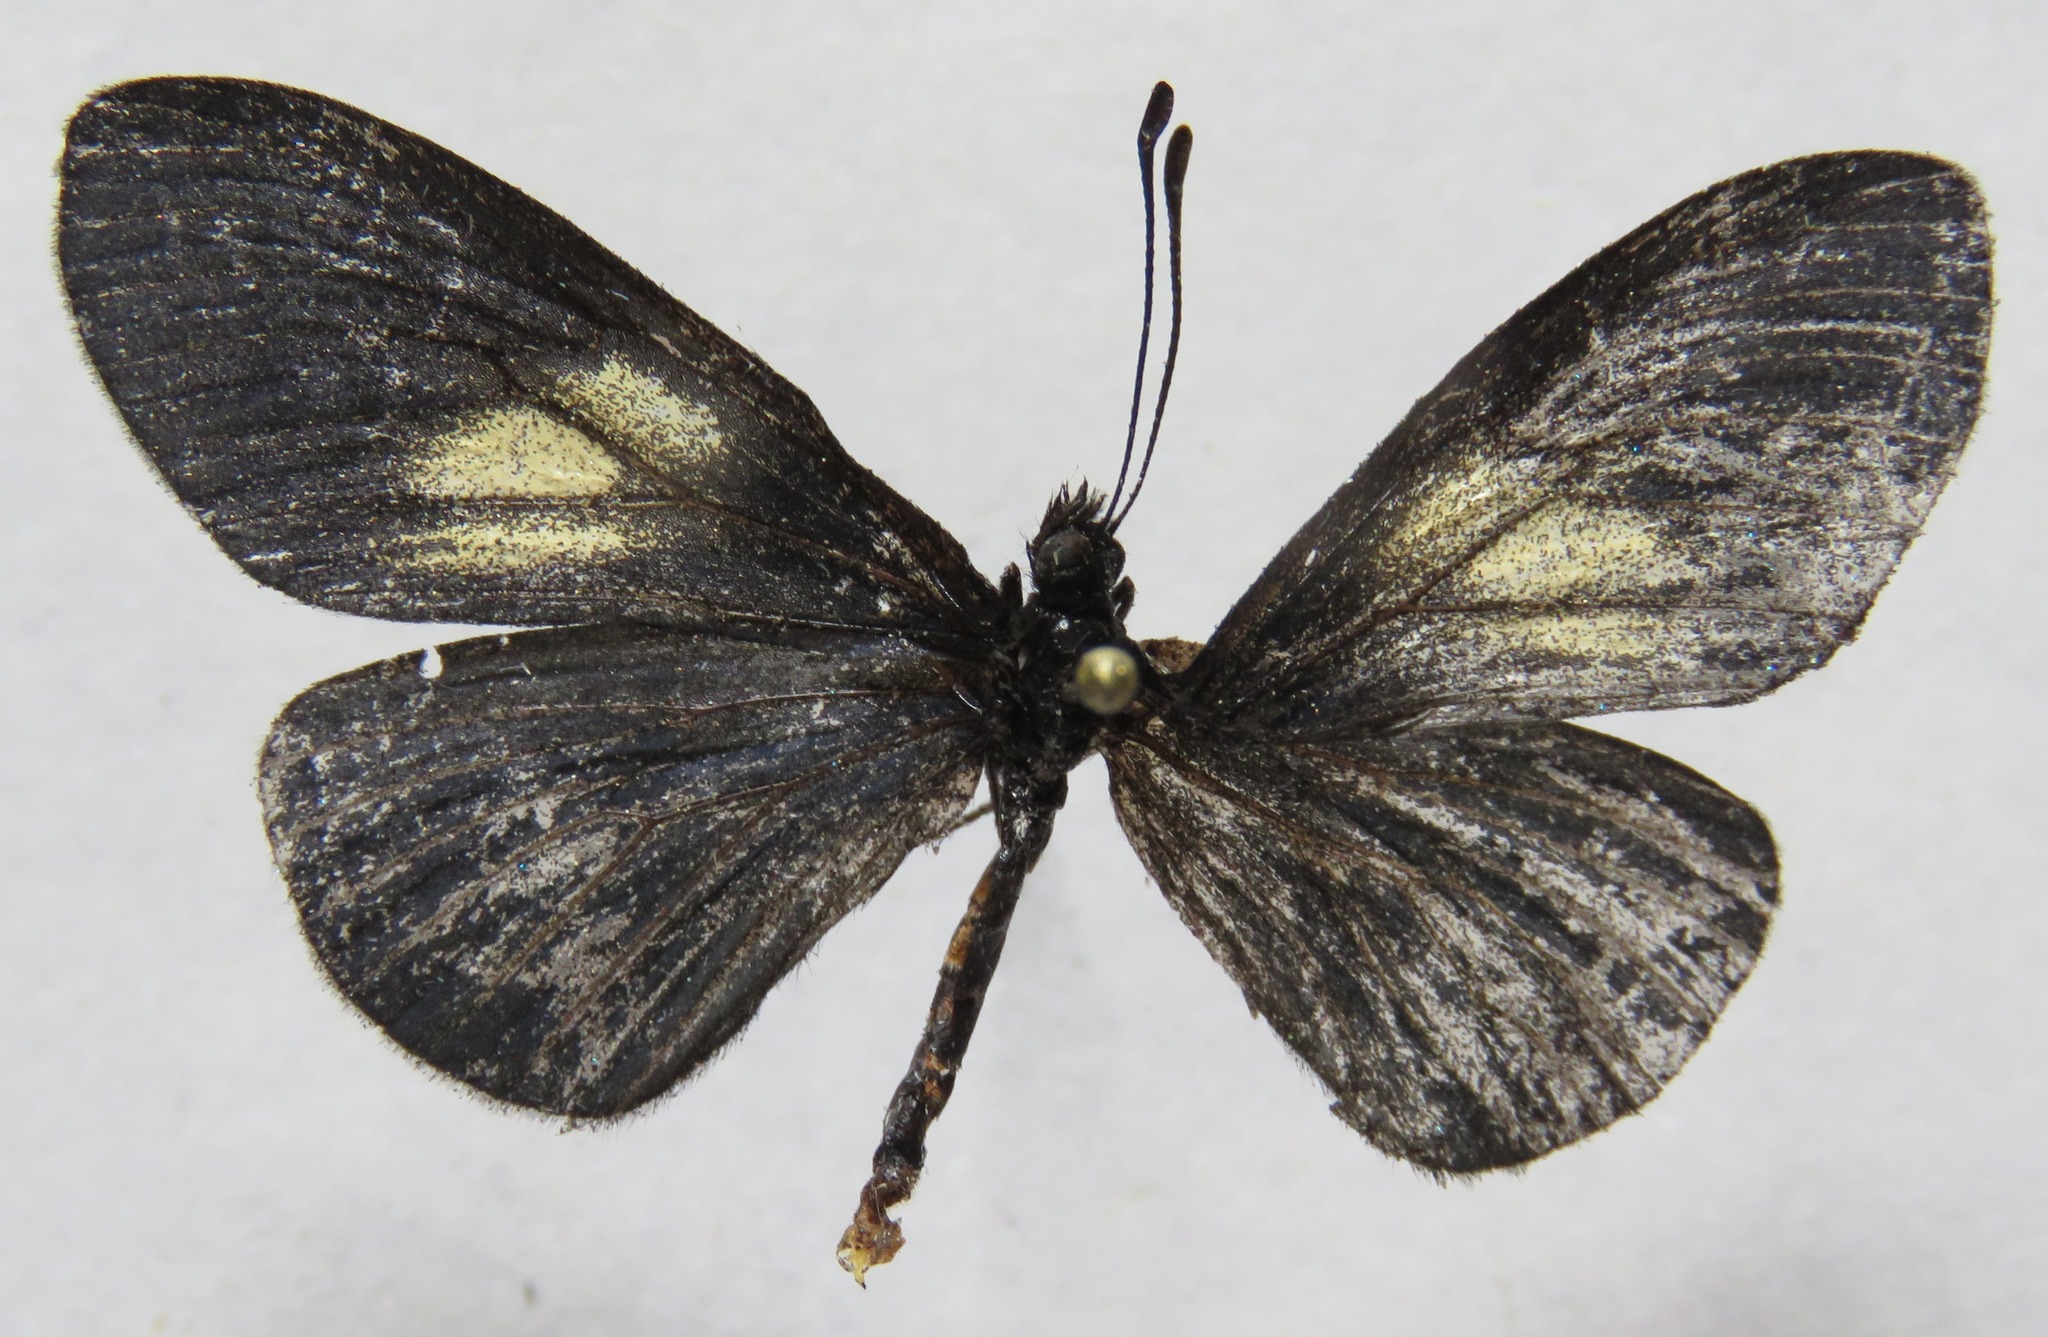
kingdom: Animalia
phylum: Arthropoda
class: Insecta
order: Lepidoptera
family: Nymphalidae
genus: Acraea
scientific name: Acraea Altinote ozomene
